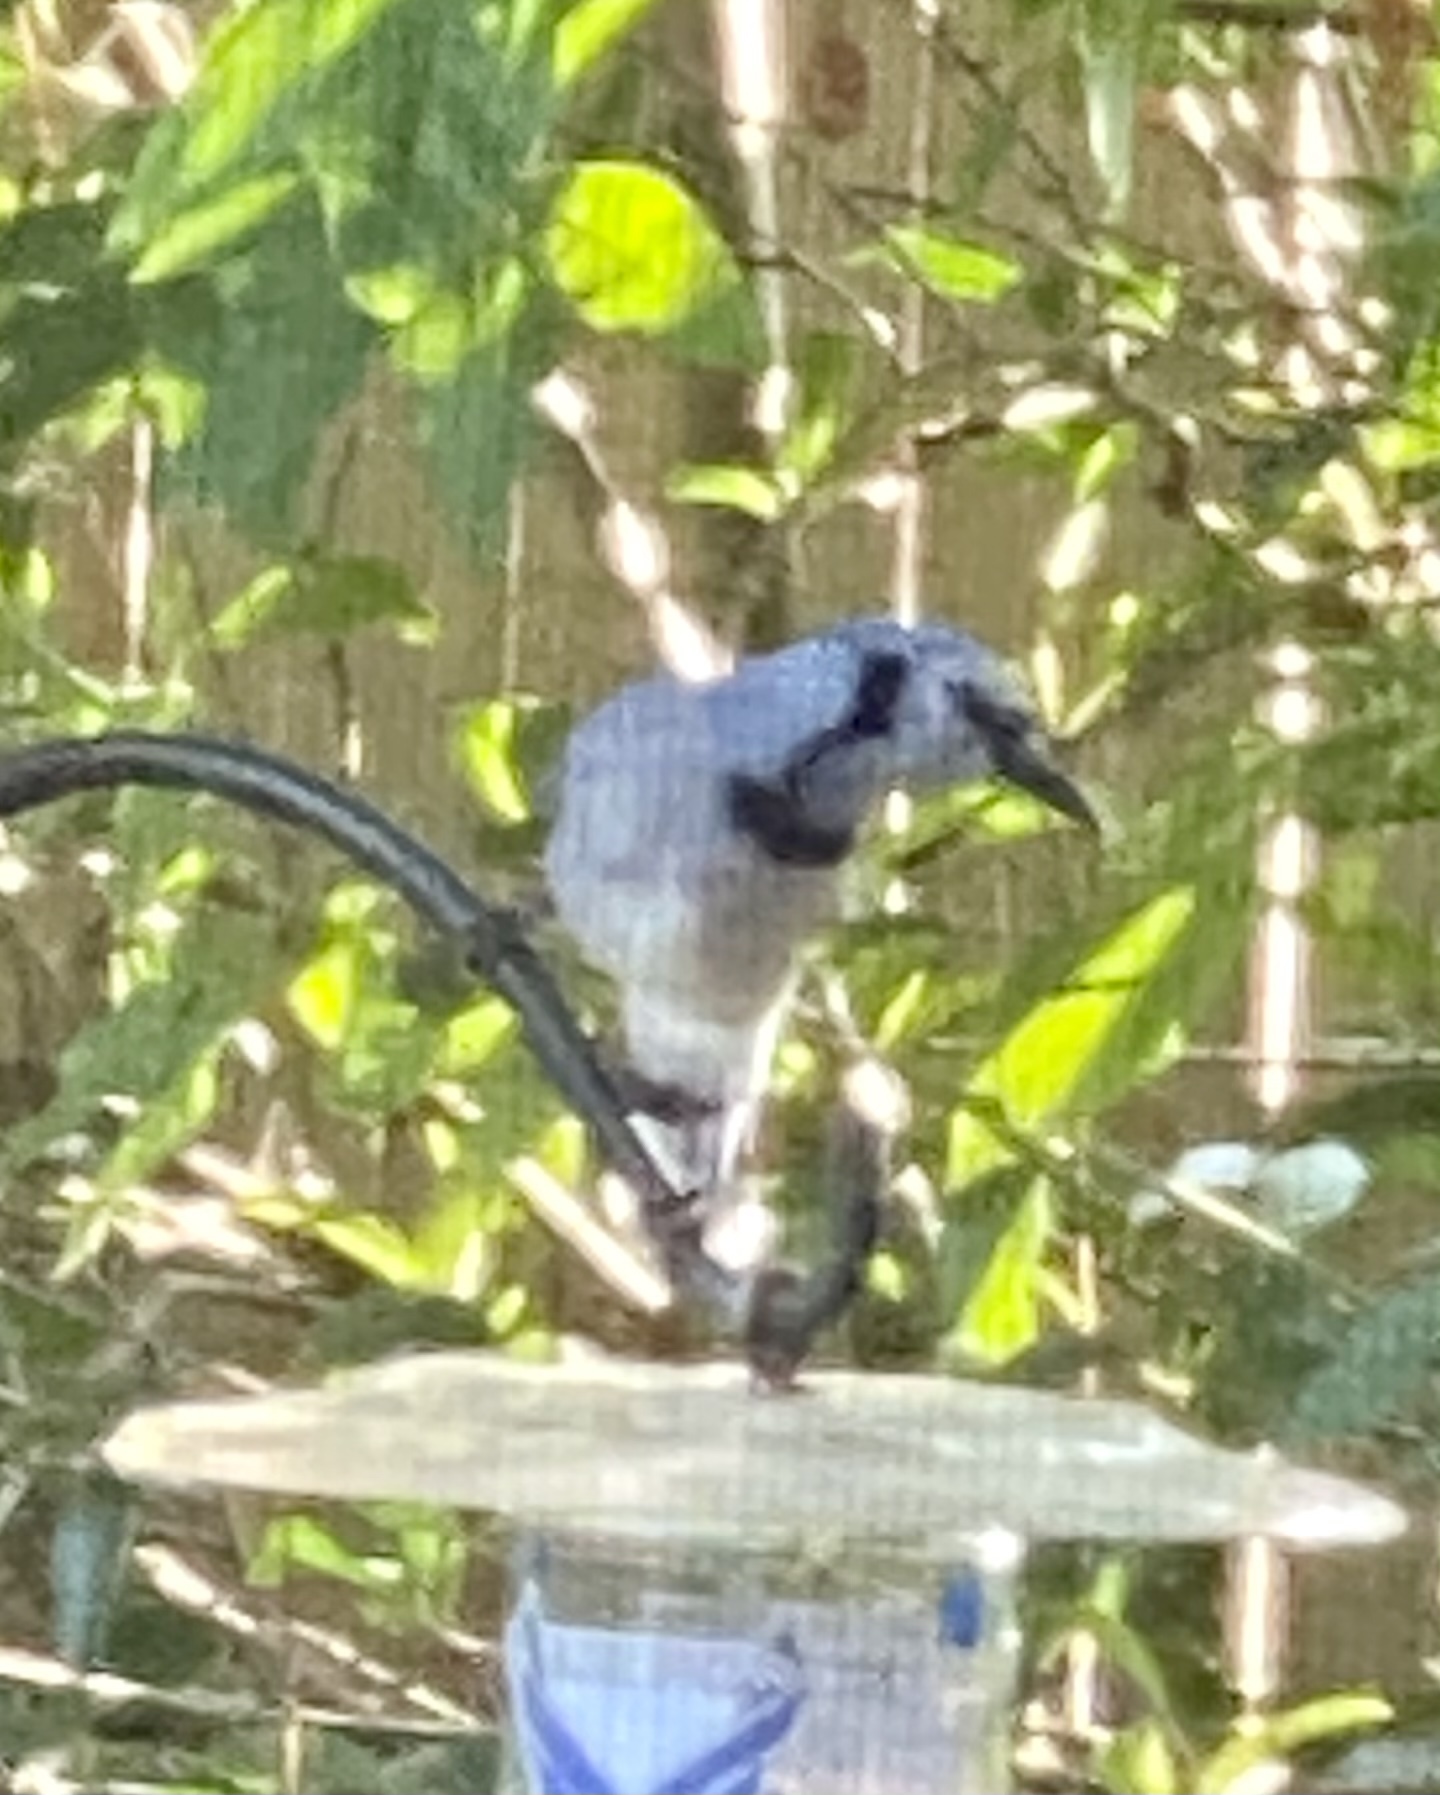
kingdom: Animalia
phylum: Chordata
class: Aves
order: Passeriformes
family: Corvidae
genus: Cyanocitta
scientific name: Cyanocitta cristata
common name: Blue jay
